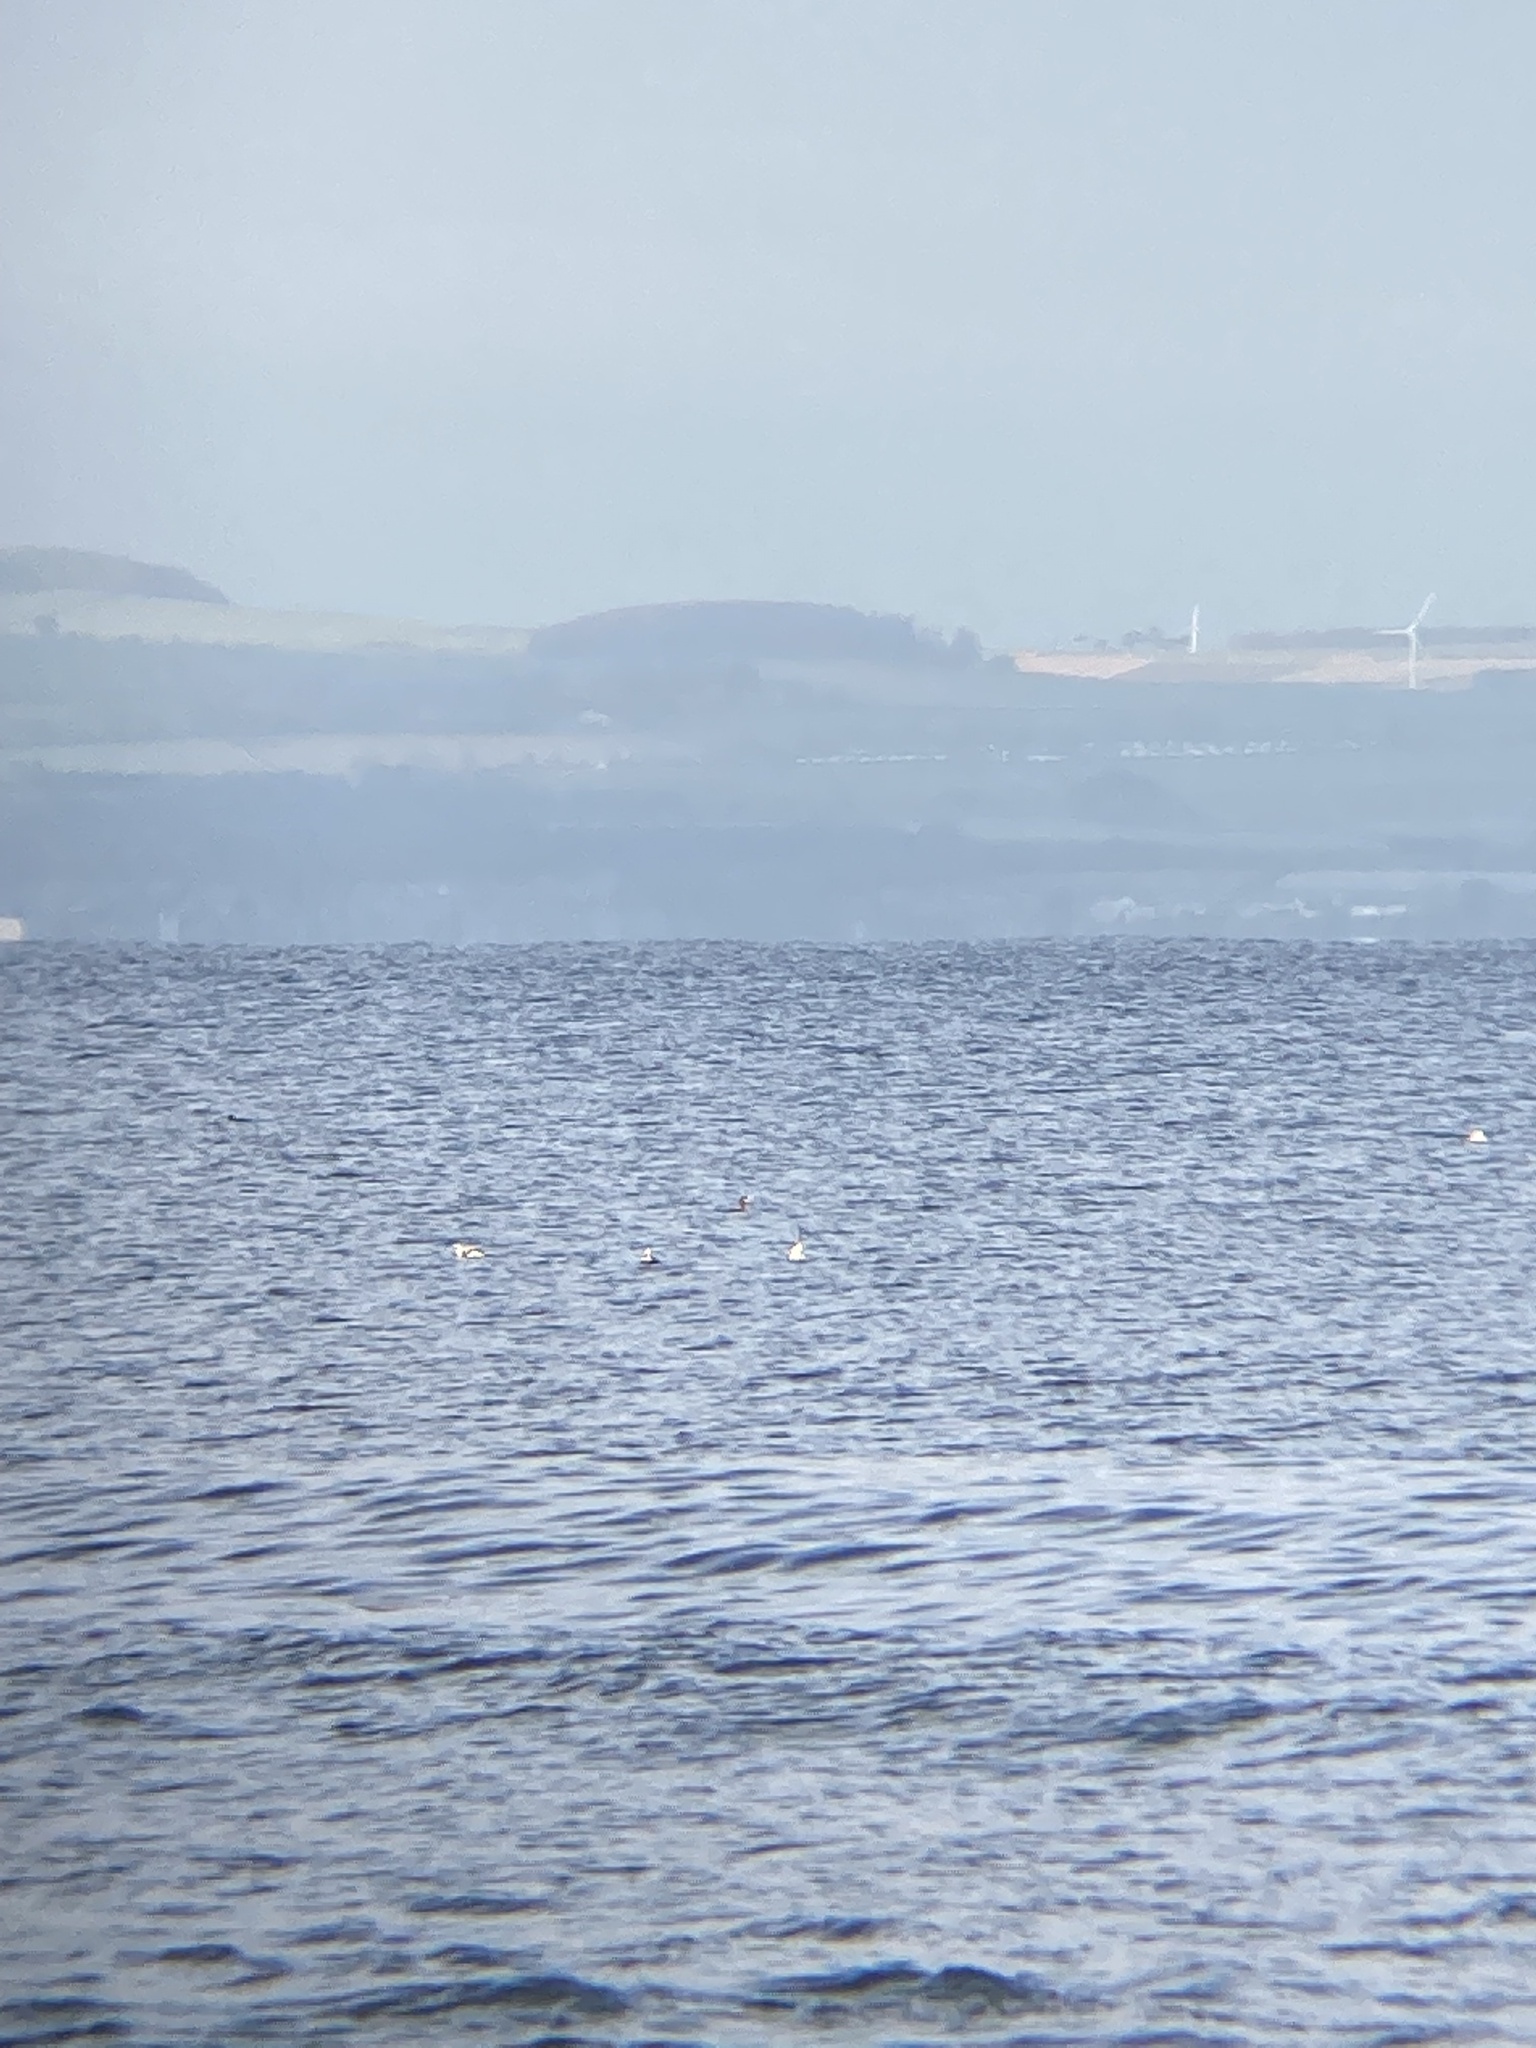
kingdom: Animalia
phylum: Chordata
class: Aves
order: Anseriformes
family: Anatidae
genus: Clangula
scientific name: Clangula hyemalis
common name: Long-tailed duck
